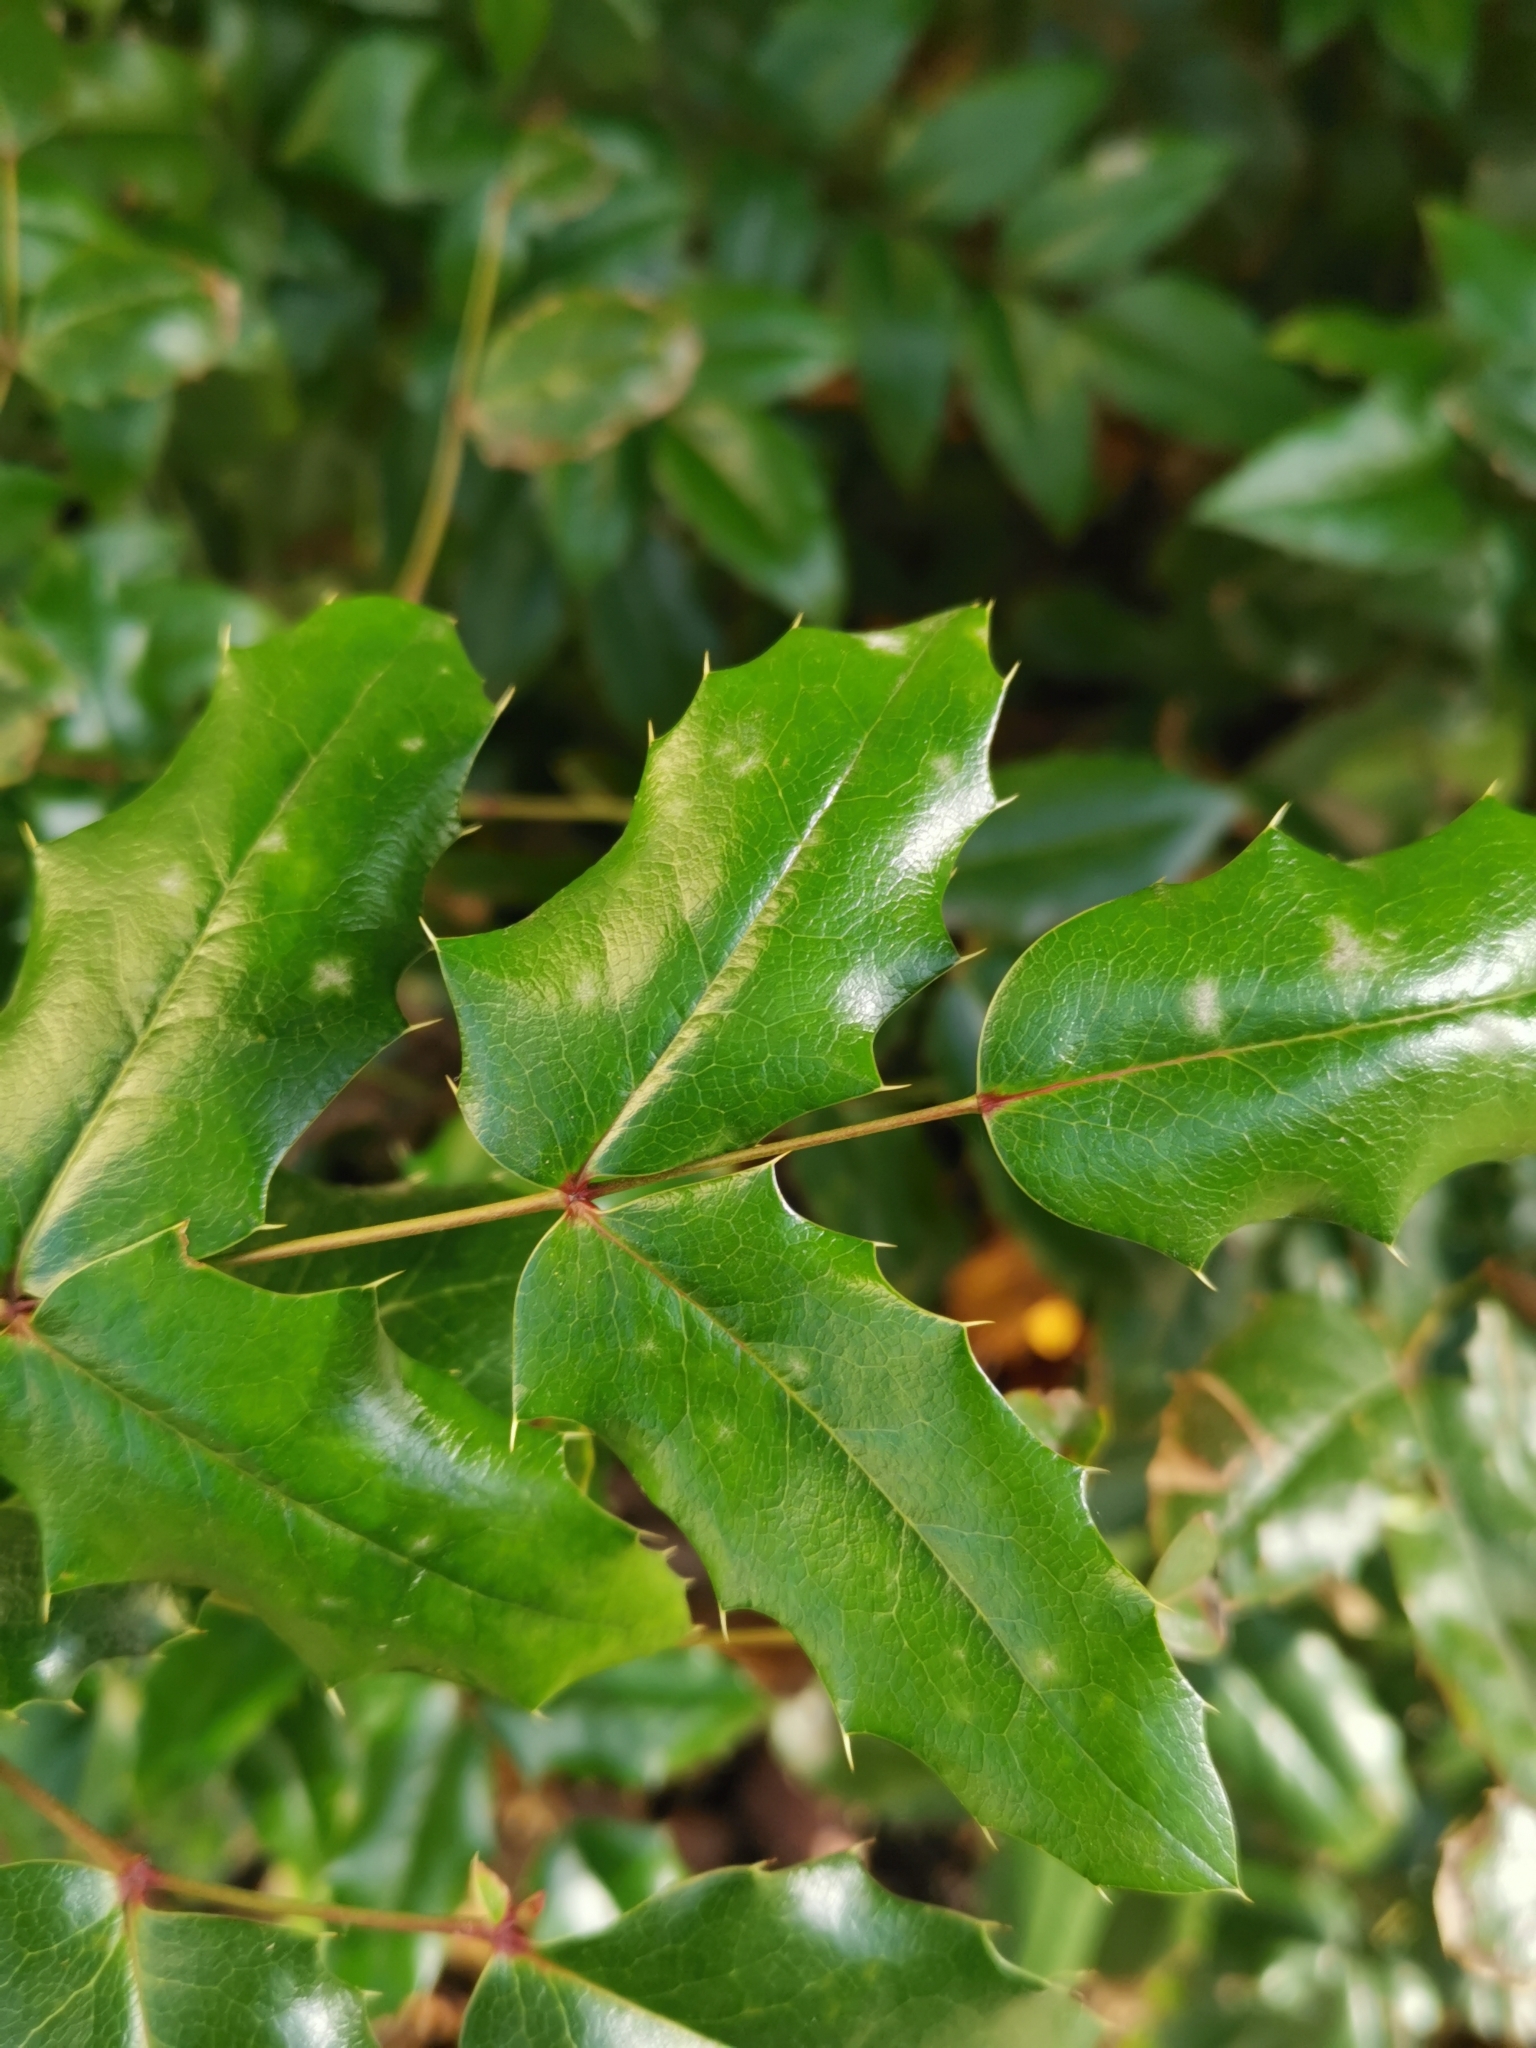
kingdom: Plantae
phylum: Tracheophyta
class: Magnoliopsida
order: Ranunculales
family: Berberidaceae
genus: Mahonia
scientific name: Mahonia aquifolium
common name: Oregon-grape
